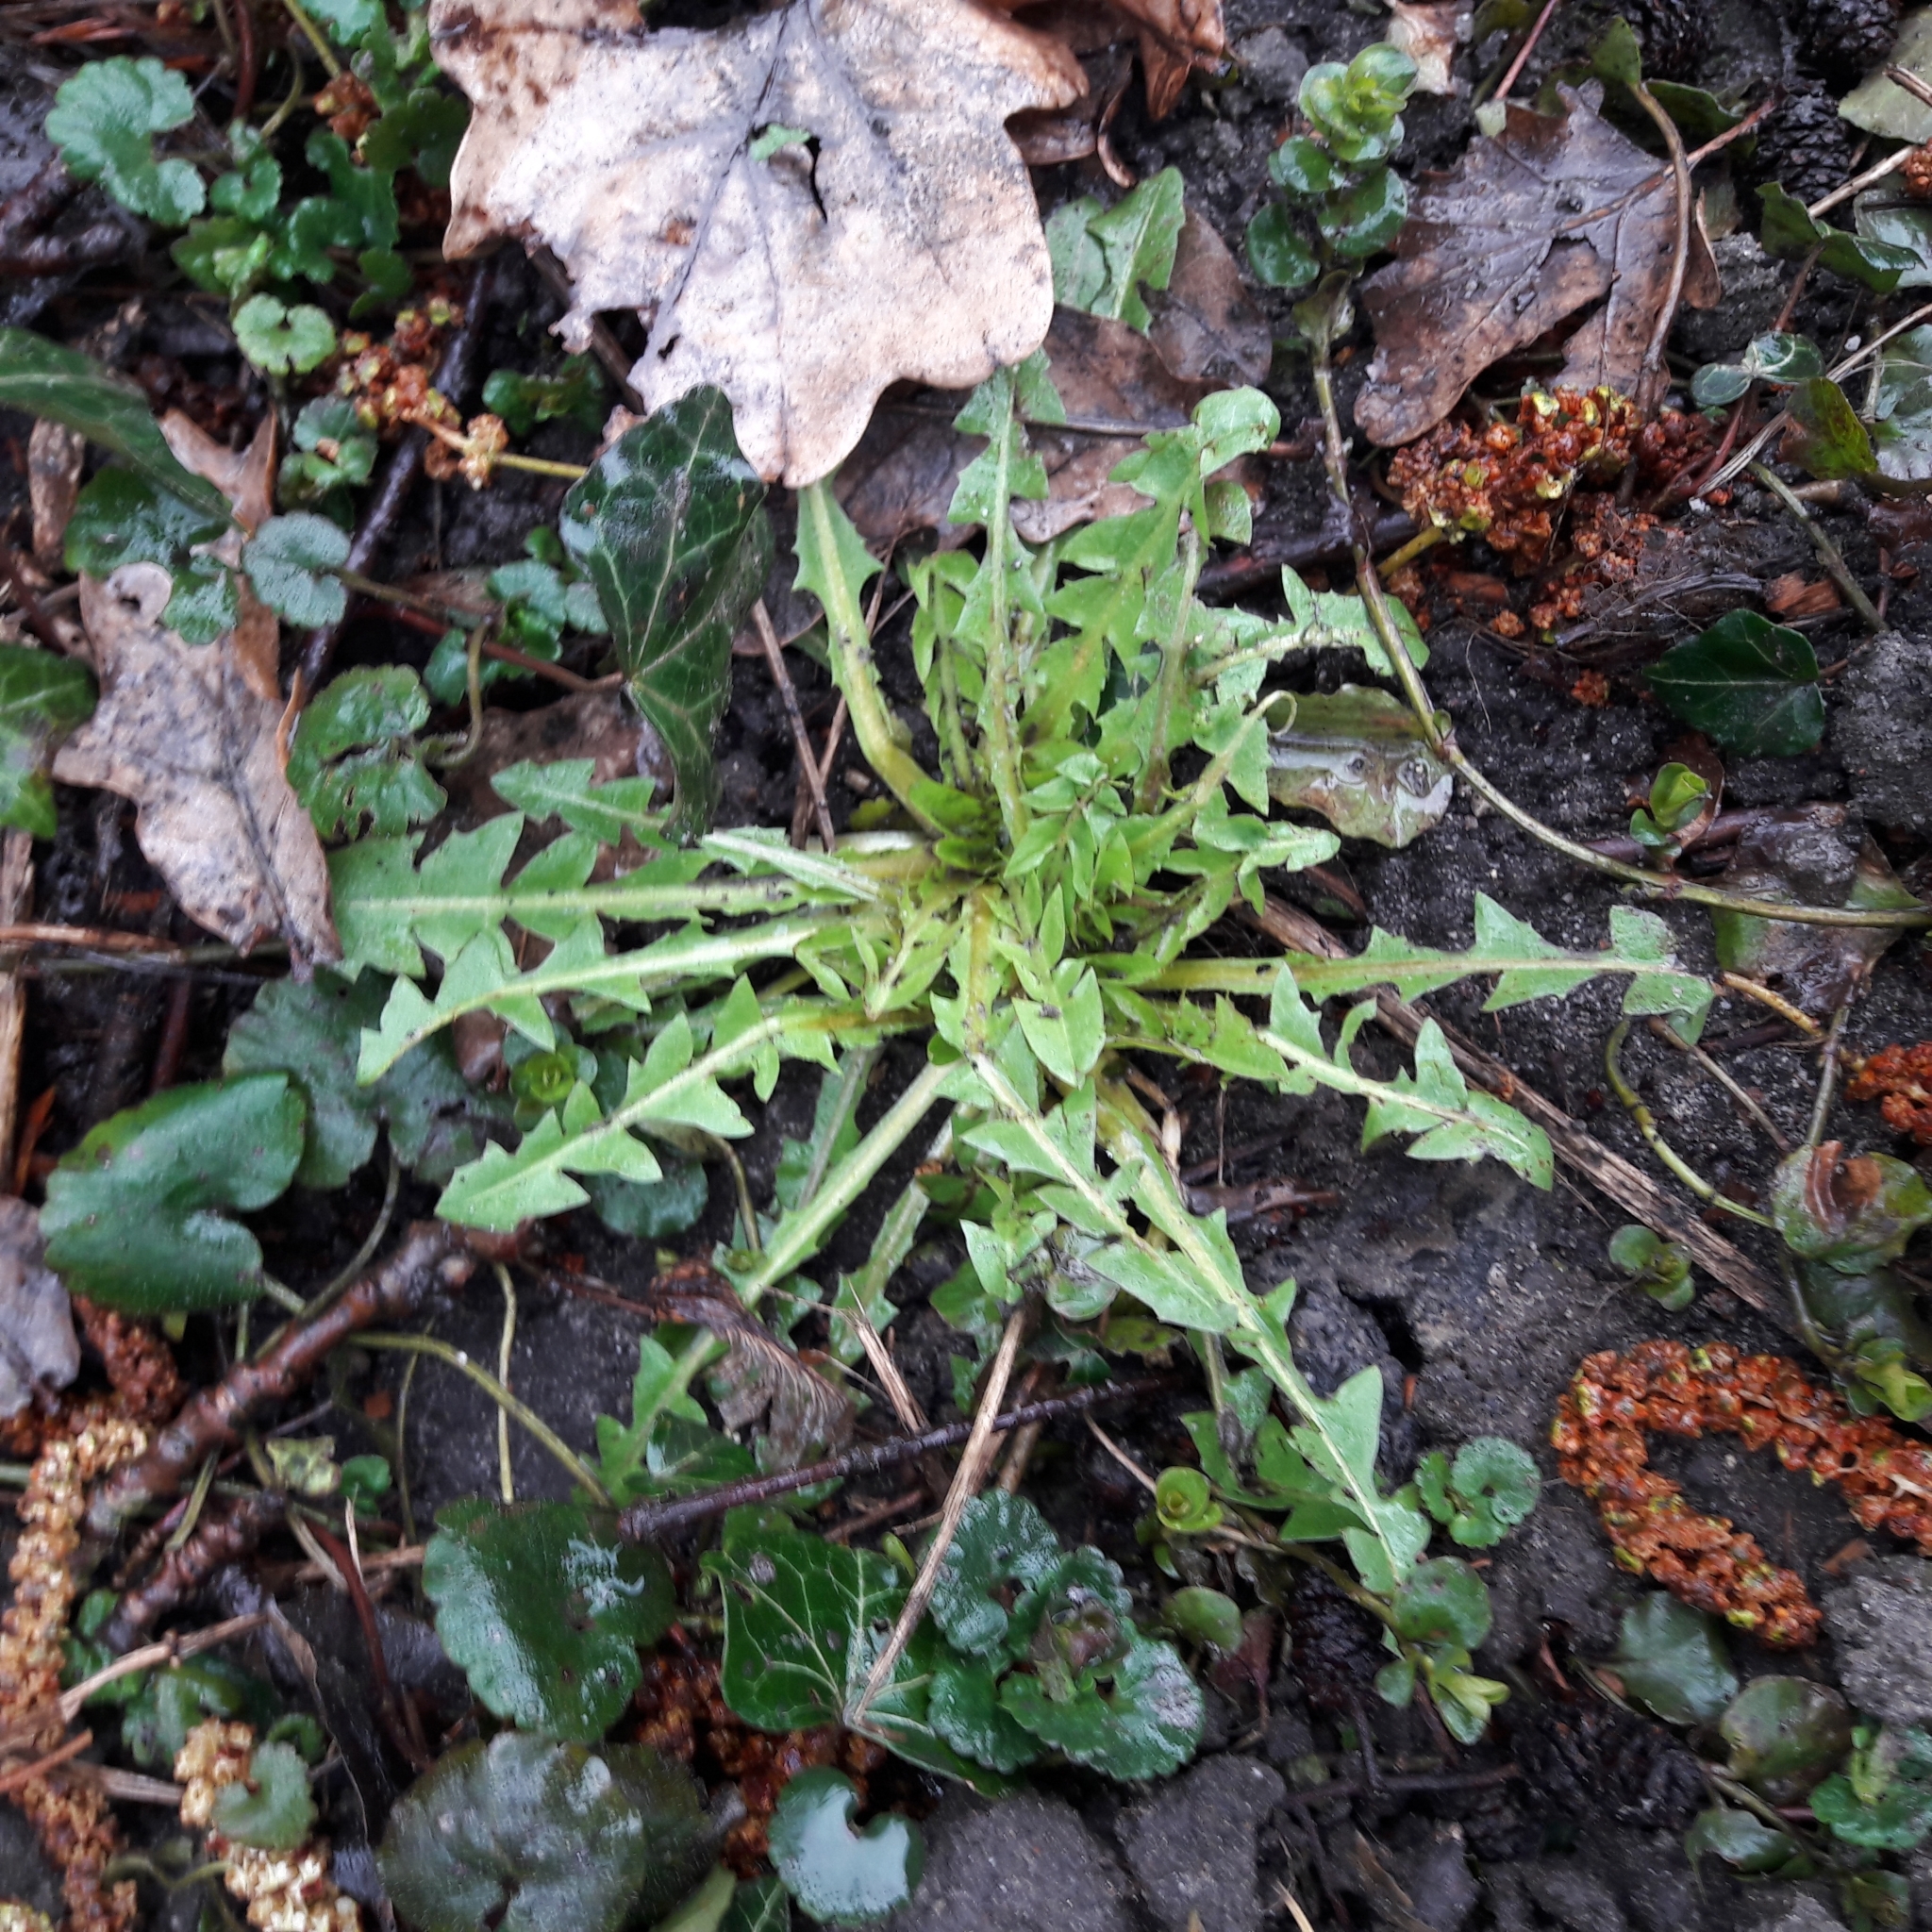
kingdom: Plantae
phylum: Tracheophyta
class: Magnoliopsida
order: Asterales
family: Asteraceae
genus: Taraxacum
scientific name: Taraxacum officinale
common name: Common dandelion
